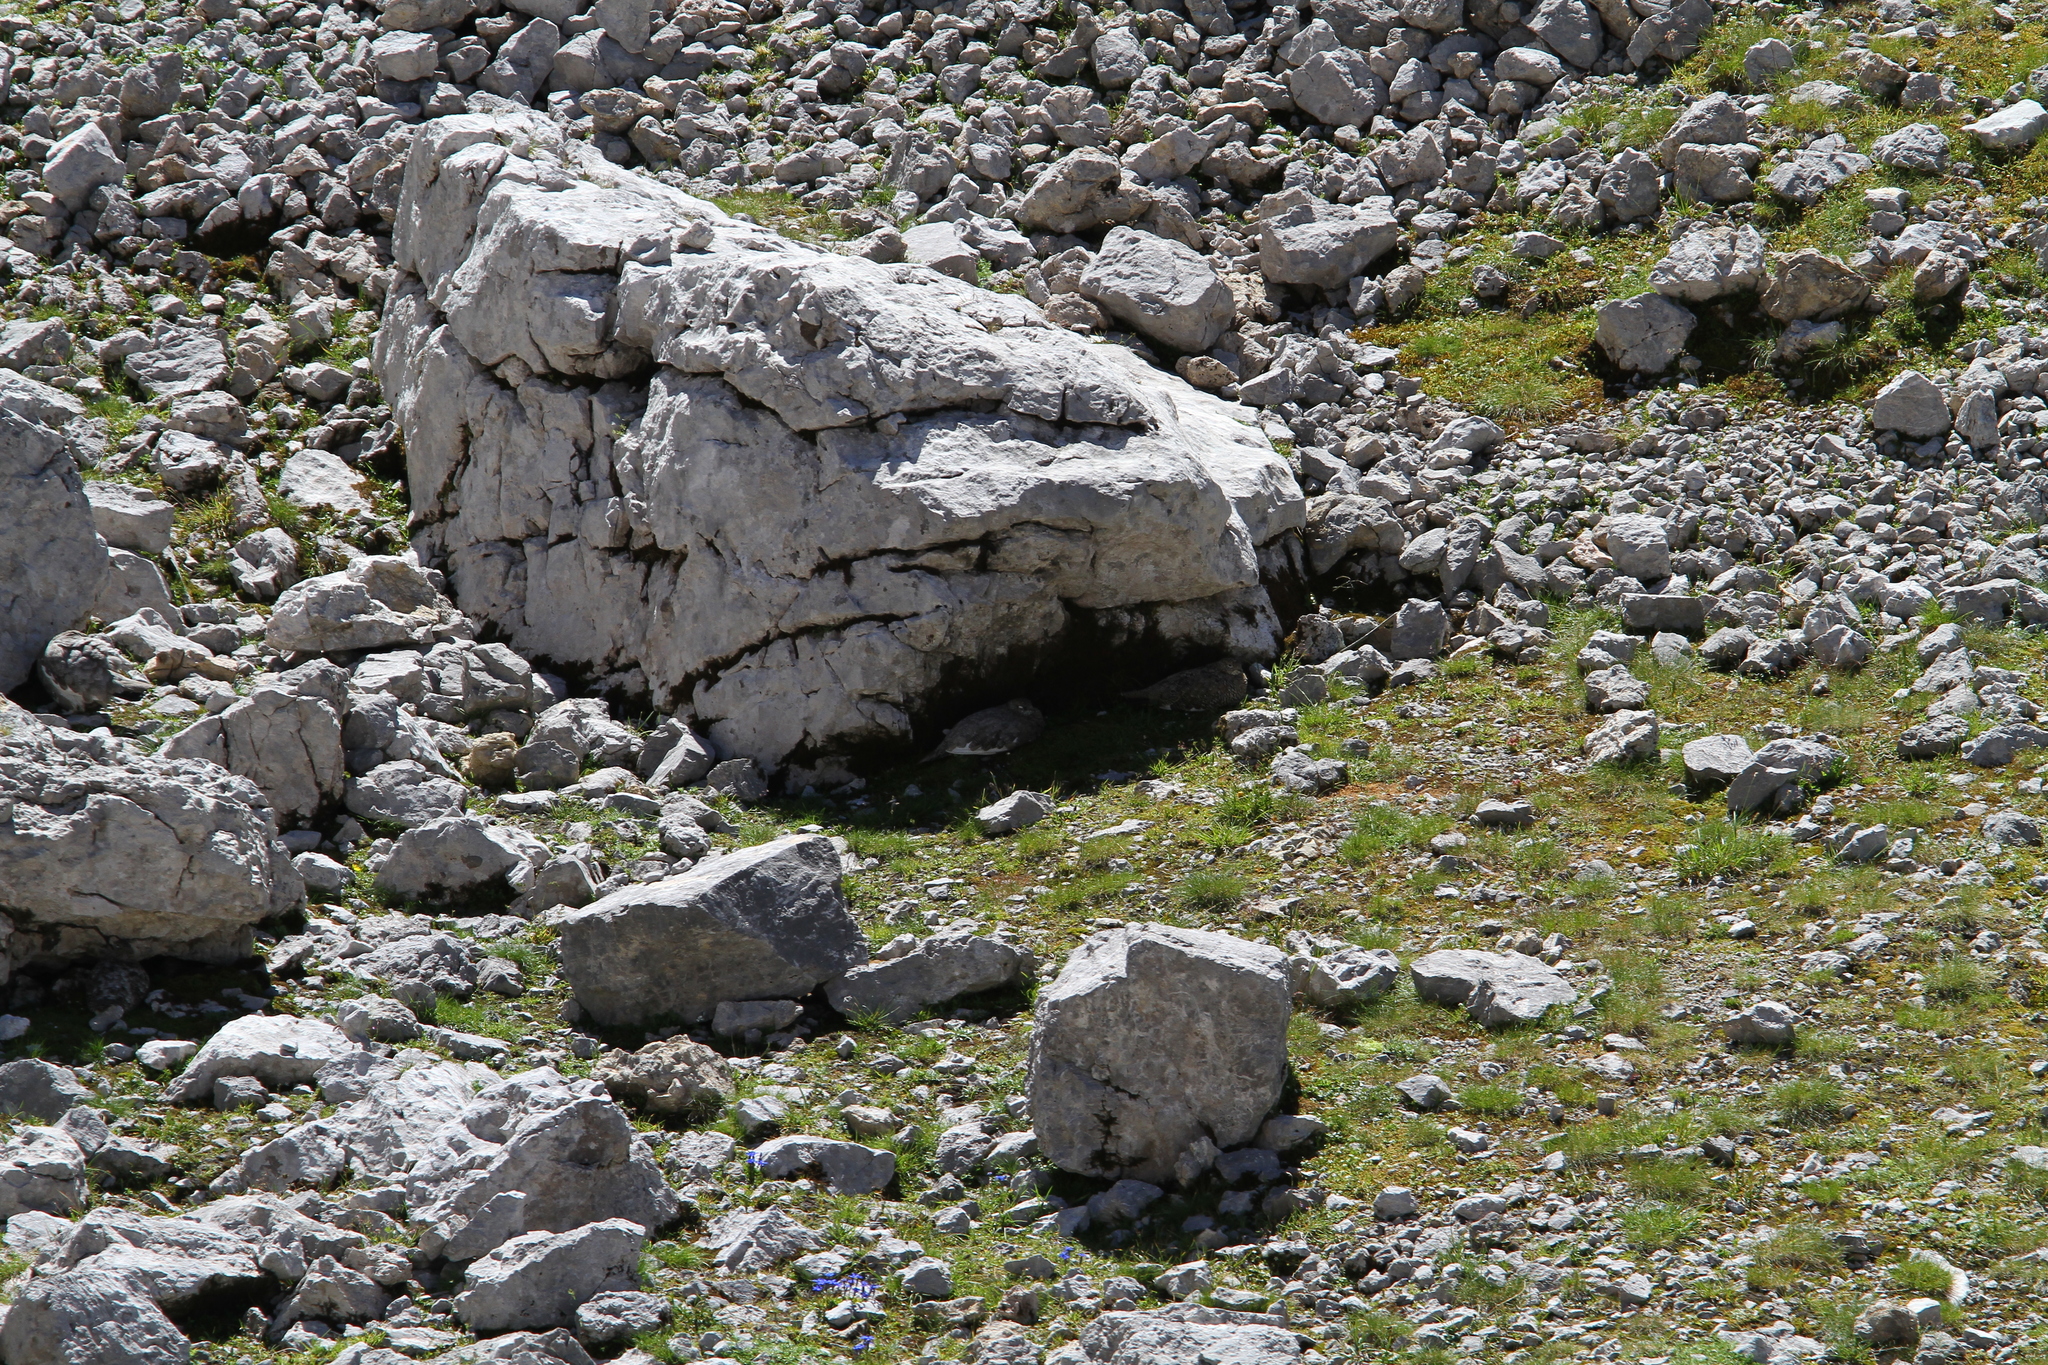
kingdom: Animalia
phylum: Chordata
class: Aves
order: Galliformes
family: Phasianidae
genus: Lagopus
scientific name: Lagopus muta
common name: Rock ptarmigan
